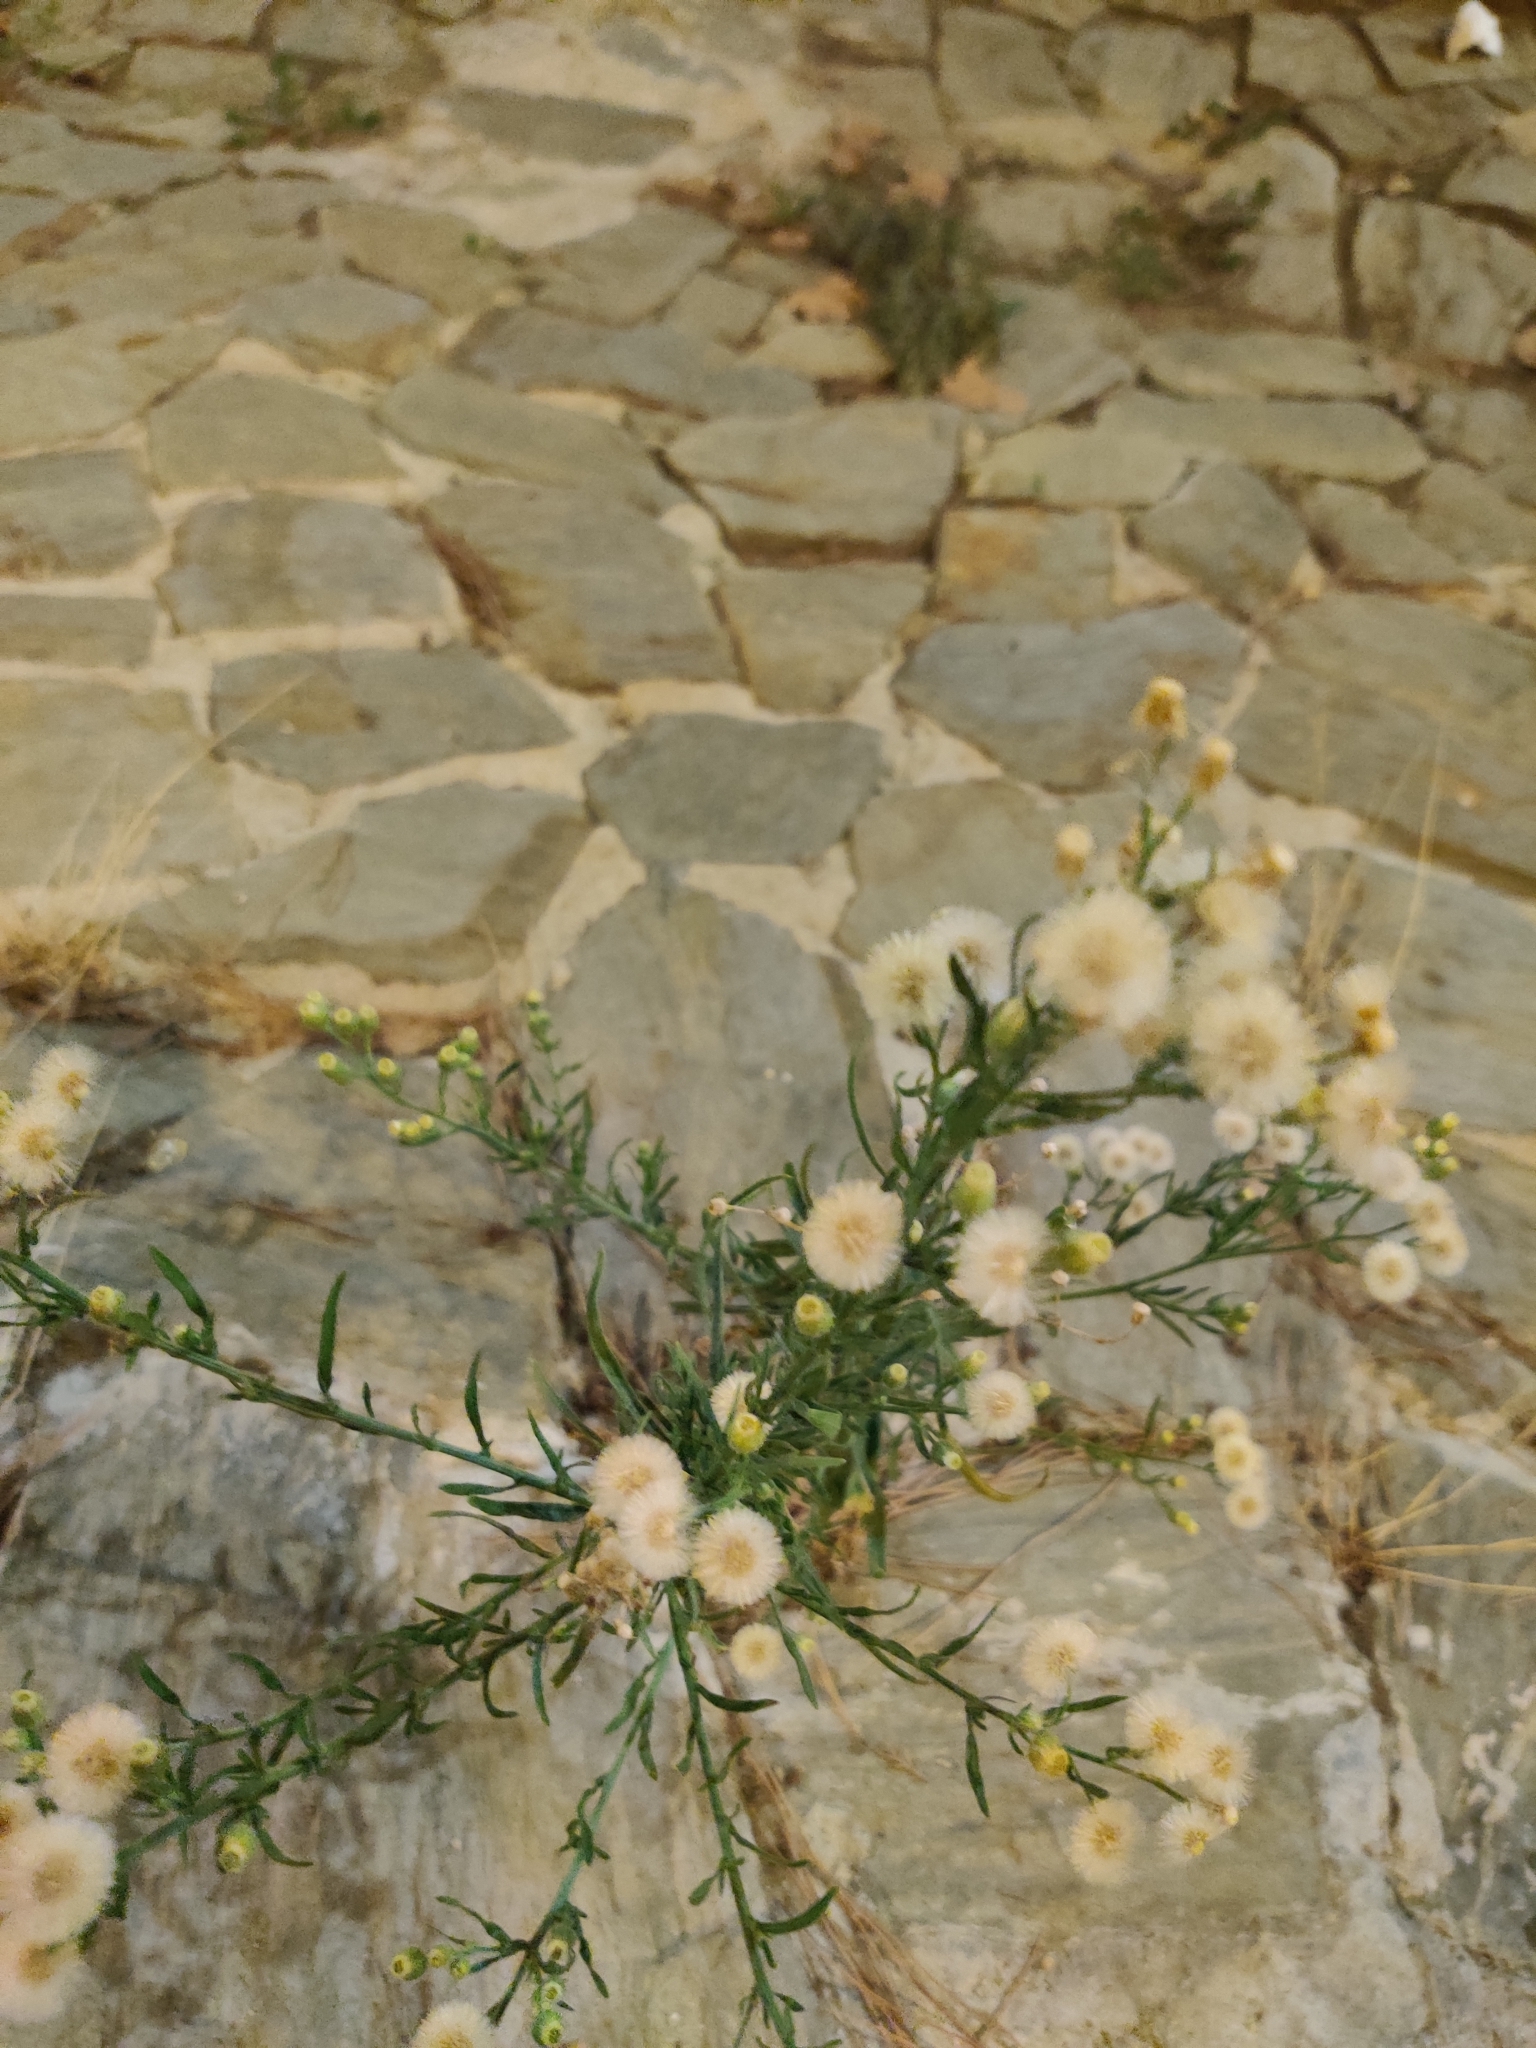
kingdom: Plantae
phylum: Tracheophyta
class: Magnoliopsida
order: Asterales
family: Asteraceae
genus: Erigeron
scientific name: Erigeron bonariensis
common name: Argentine fleabane
